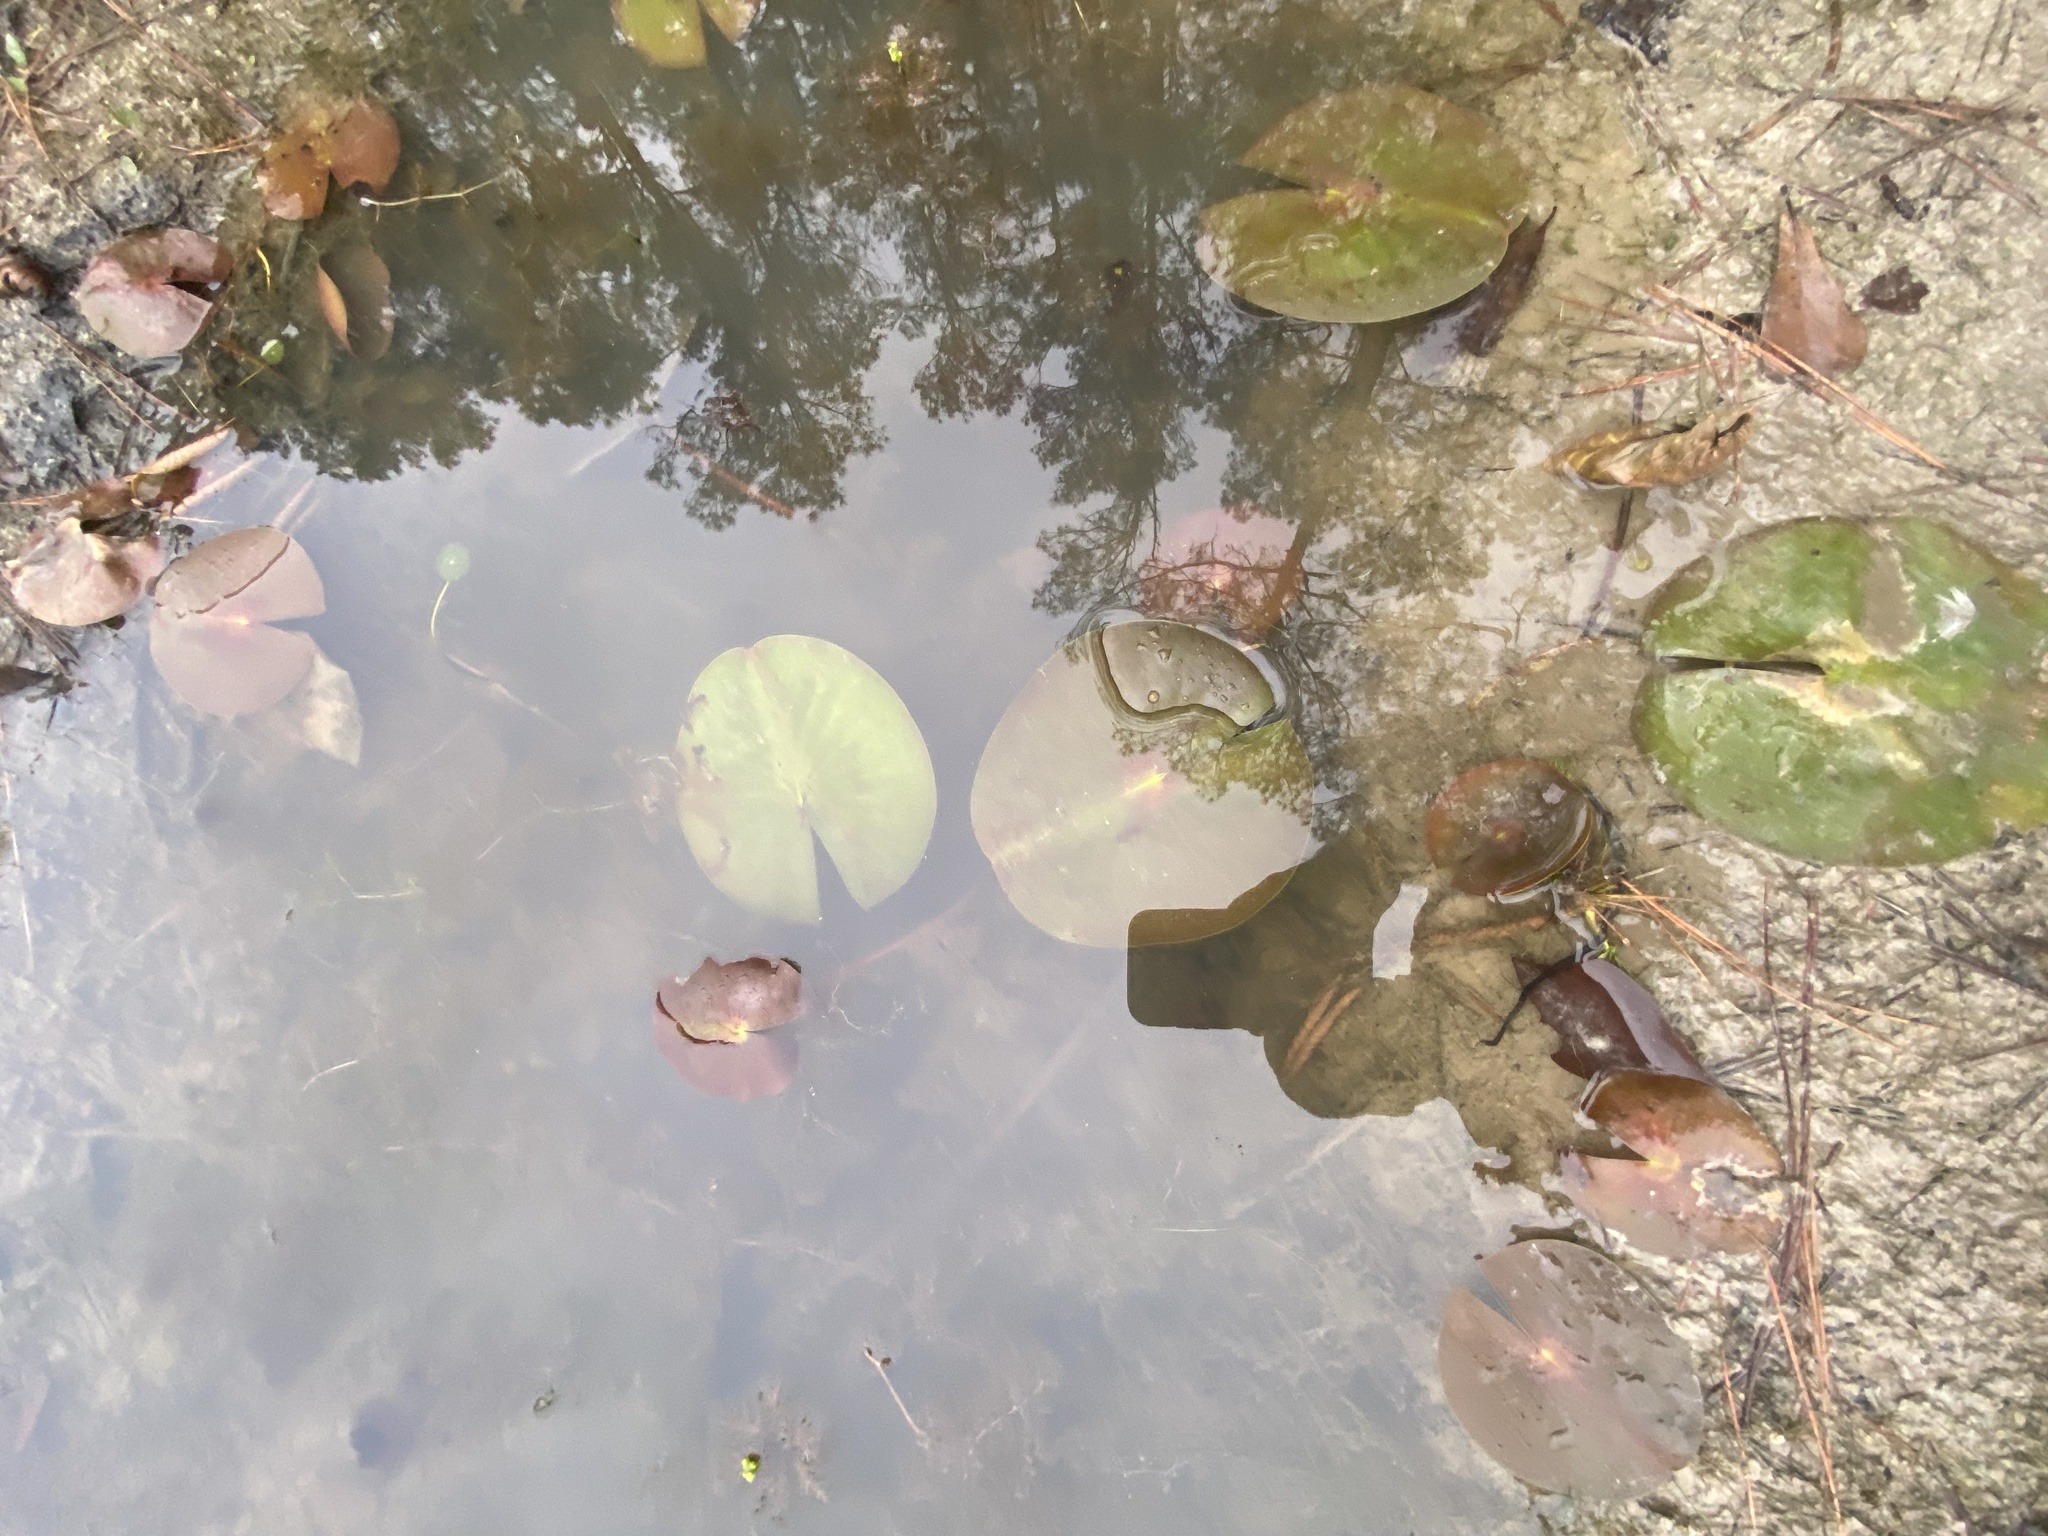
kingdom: Plantae
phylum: Tracheophyta
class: Magnoliopsida
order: Nymphaeales
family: Nymphaeaceae
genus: Nymphaea
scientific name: Nymphaea odorata
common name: Fragrant water-lily
